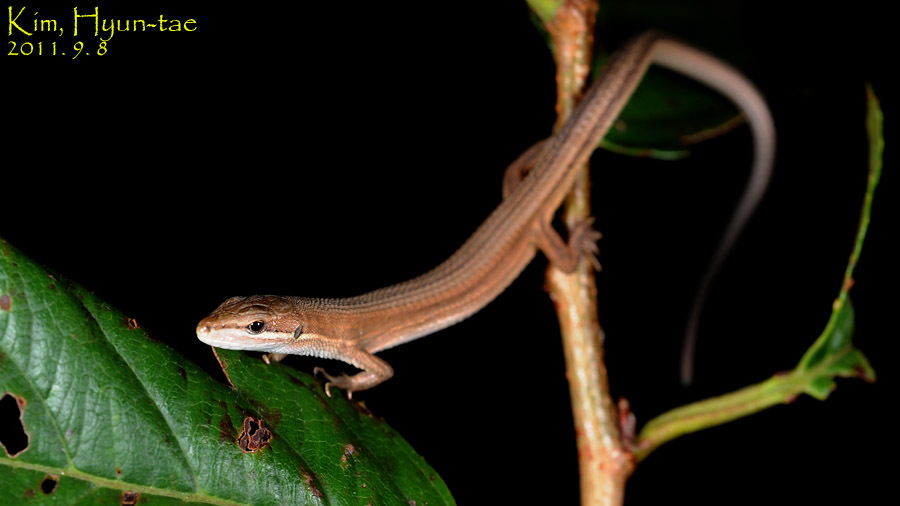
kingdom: Animalia
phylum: Chordata
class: Squamata
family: Lacertidae
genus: Takydromus
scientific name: Takydromus wolteri
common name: Mountain grass lizard
